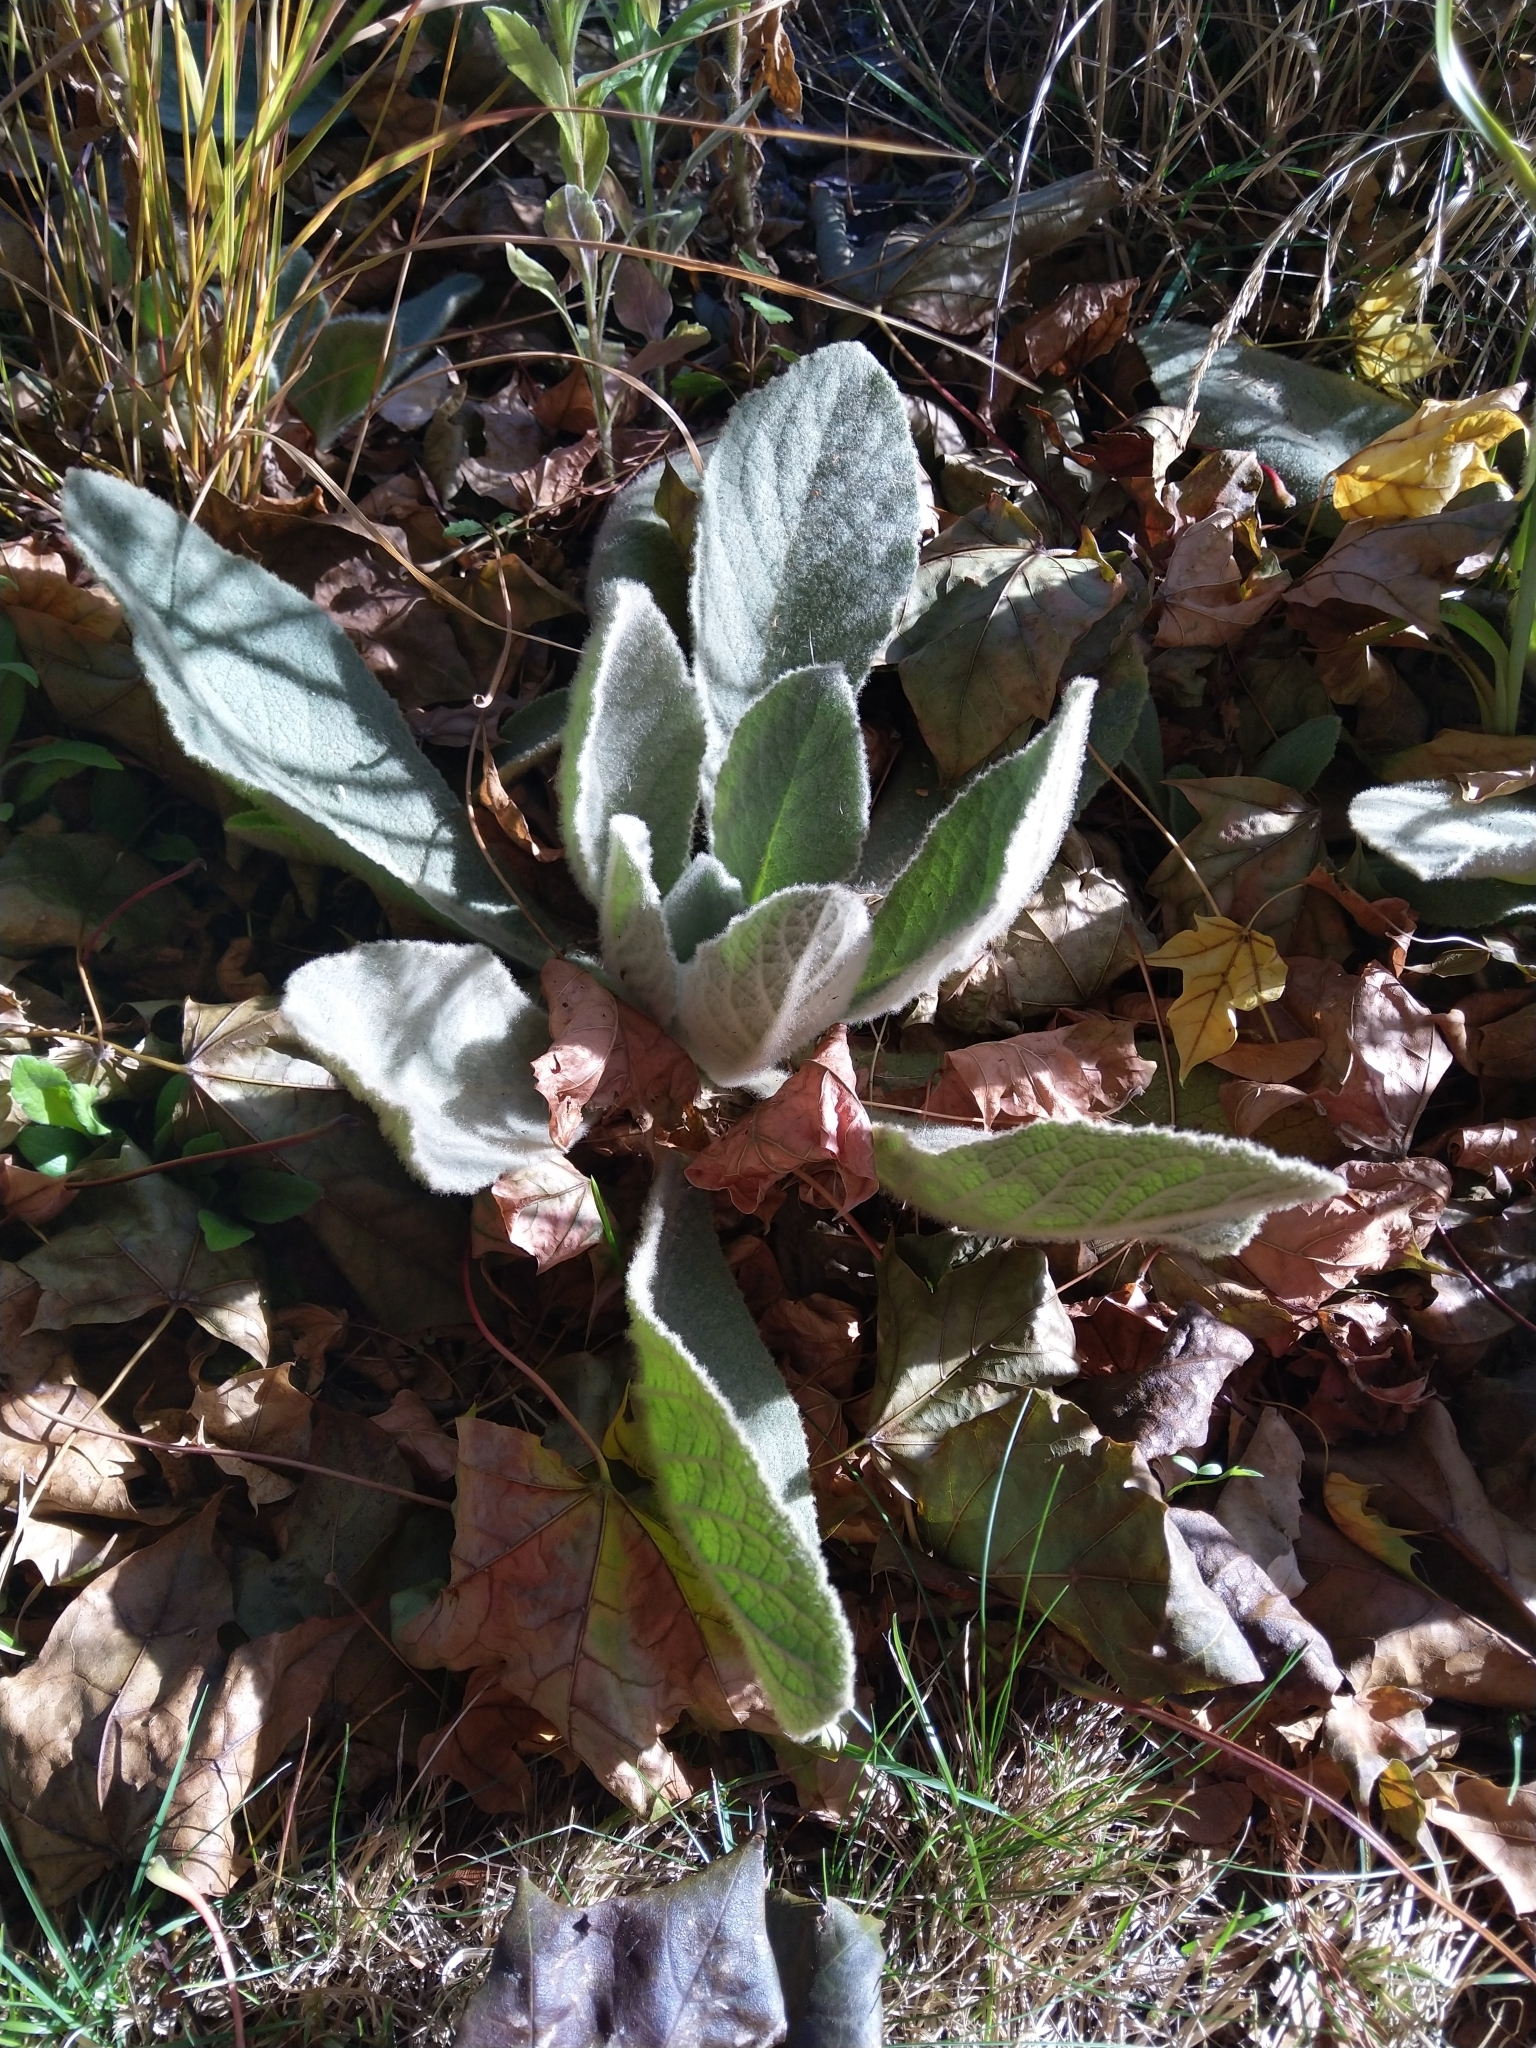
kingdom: Plantae
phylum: Tracheophyta
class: Magnoliopsida
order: Lamiales
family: Scrophulariaceae
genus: Verbascum
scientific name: Verbascum thapsus
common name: Common mullein
